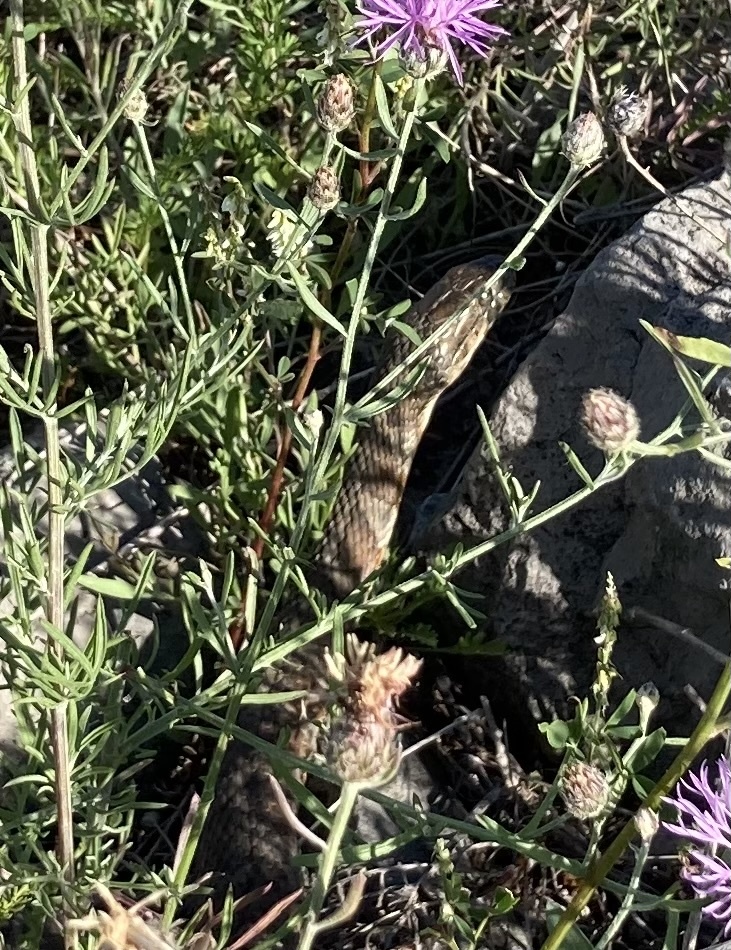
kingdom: Animalia
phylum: Chordata
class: Squamata
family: Colubridae
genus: Nerodia
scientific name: Nerodia sipedon
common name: Northern water snake
